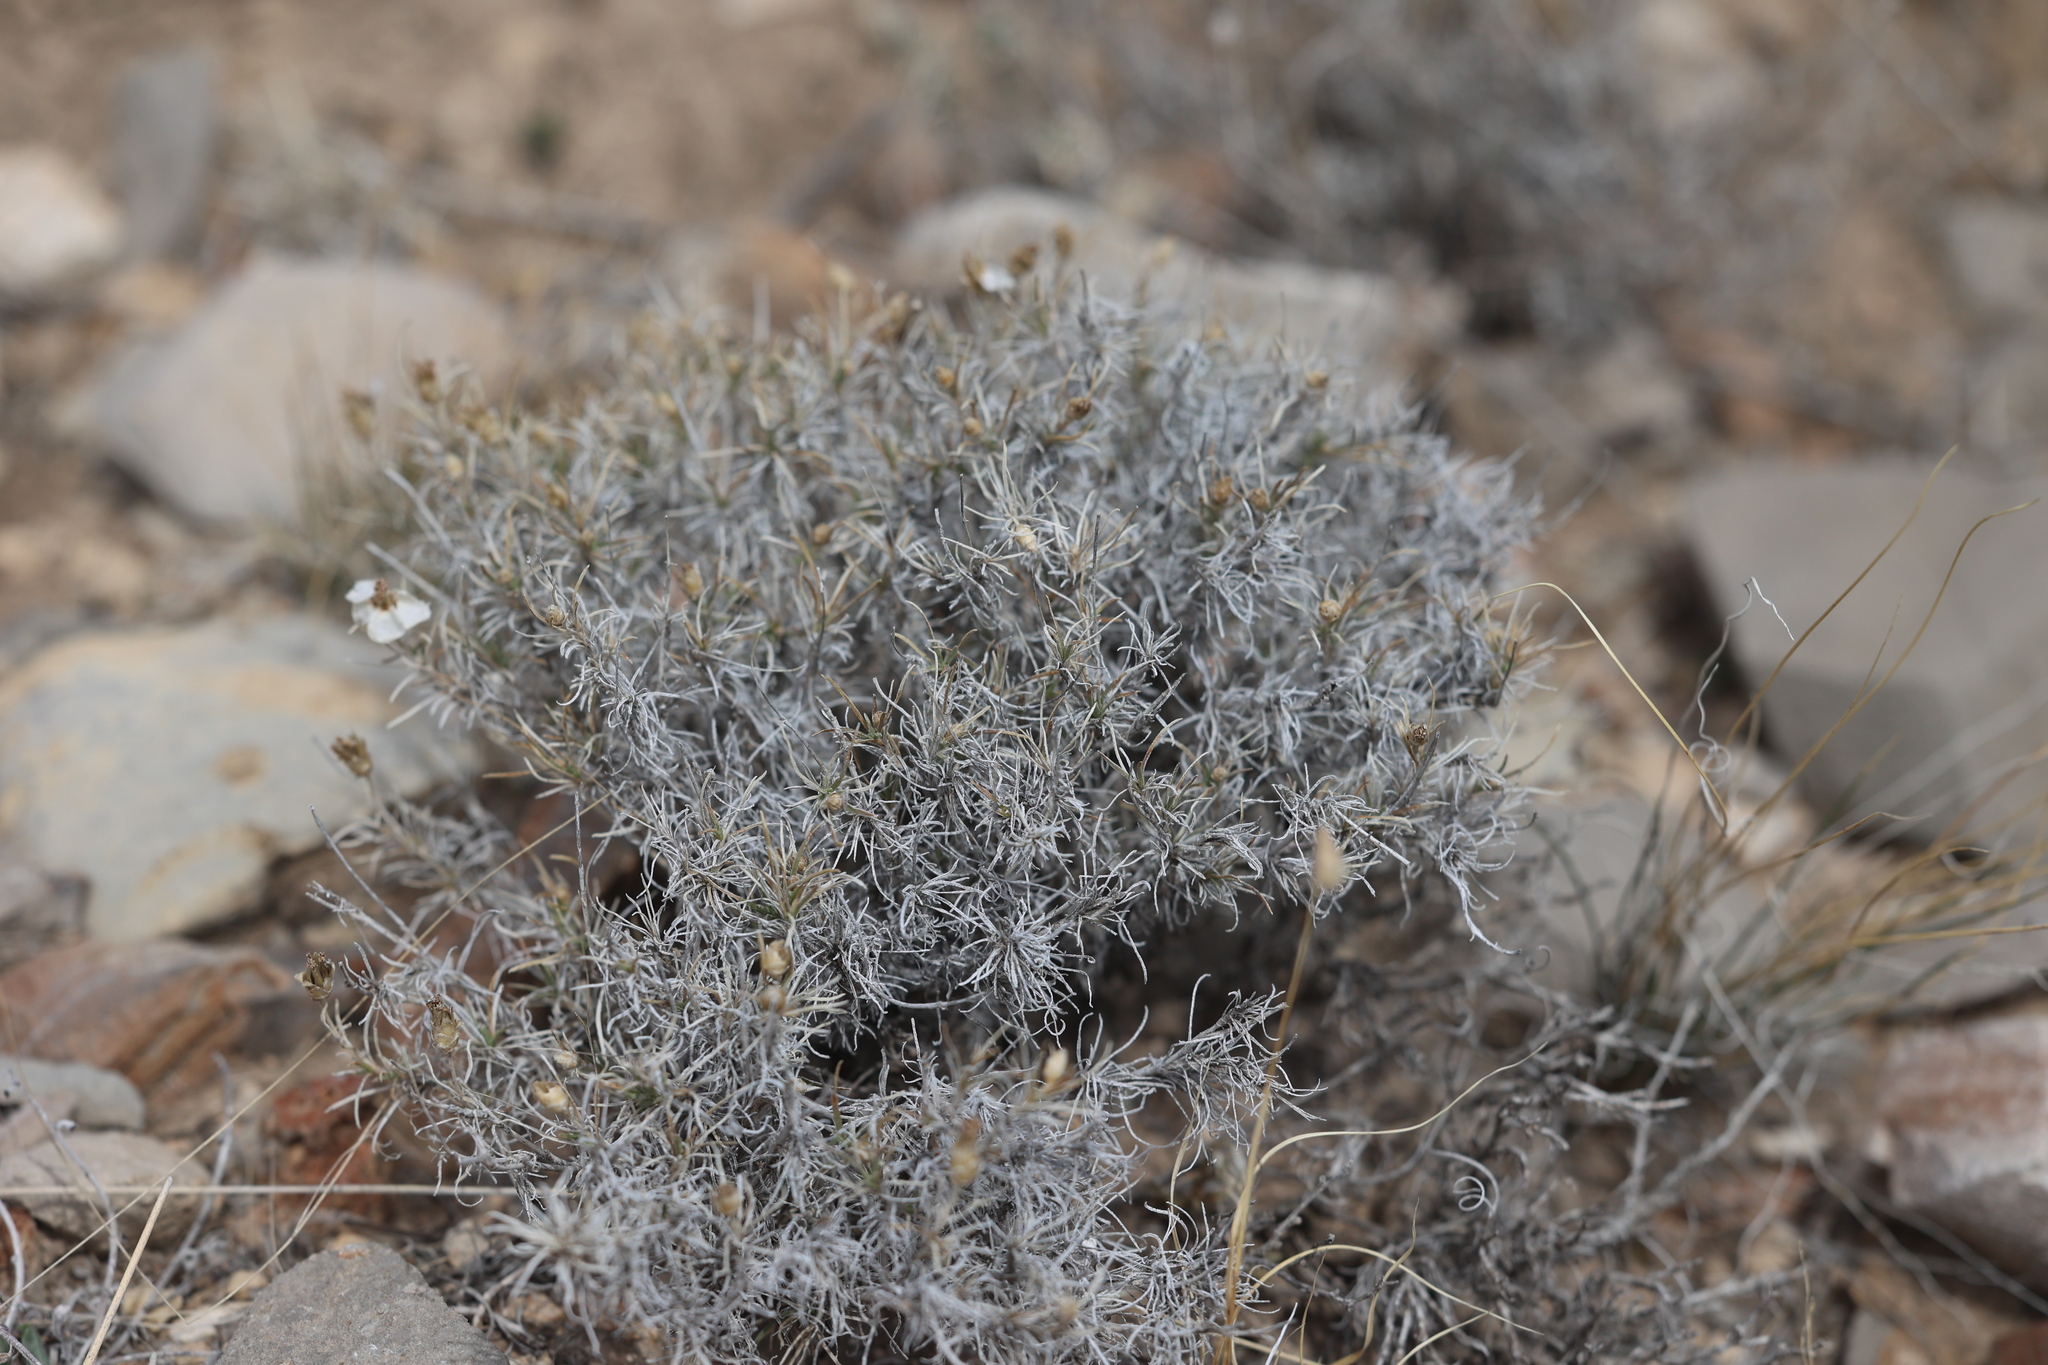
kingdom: Plantae
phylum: Tracheophyta
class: Magnoliopsida
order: Asterales
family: Asteraceae
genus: Zinnia
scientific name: Zinnia acerosa
